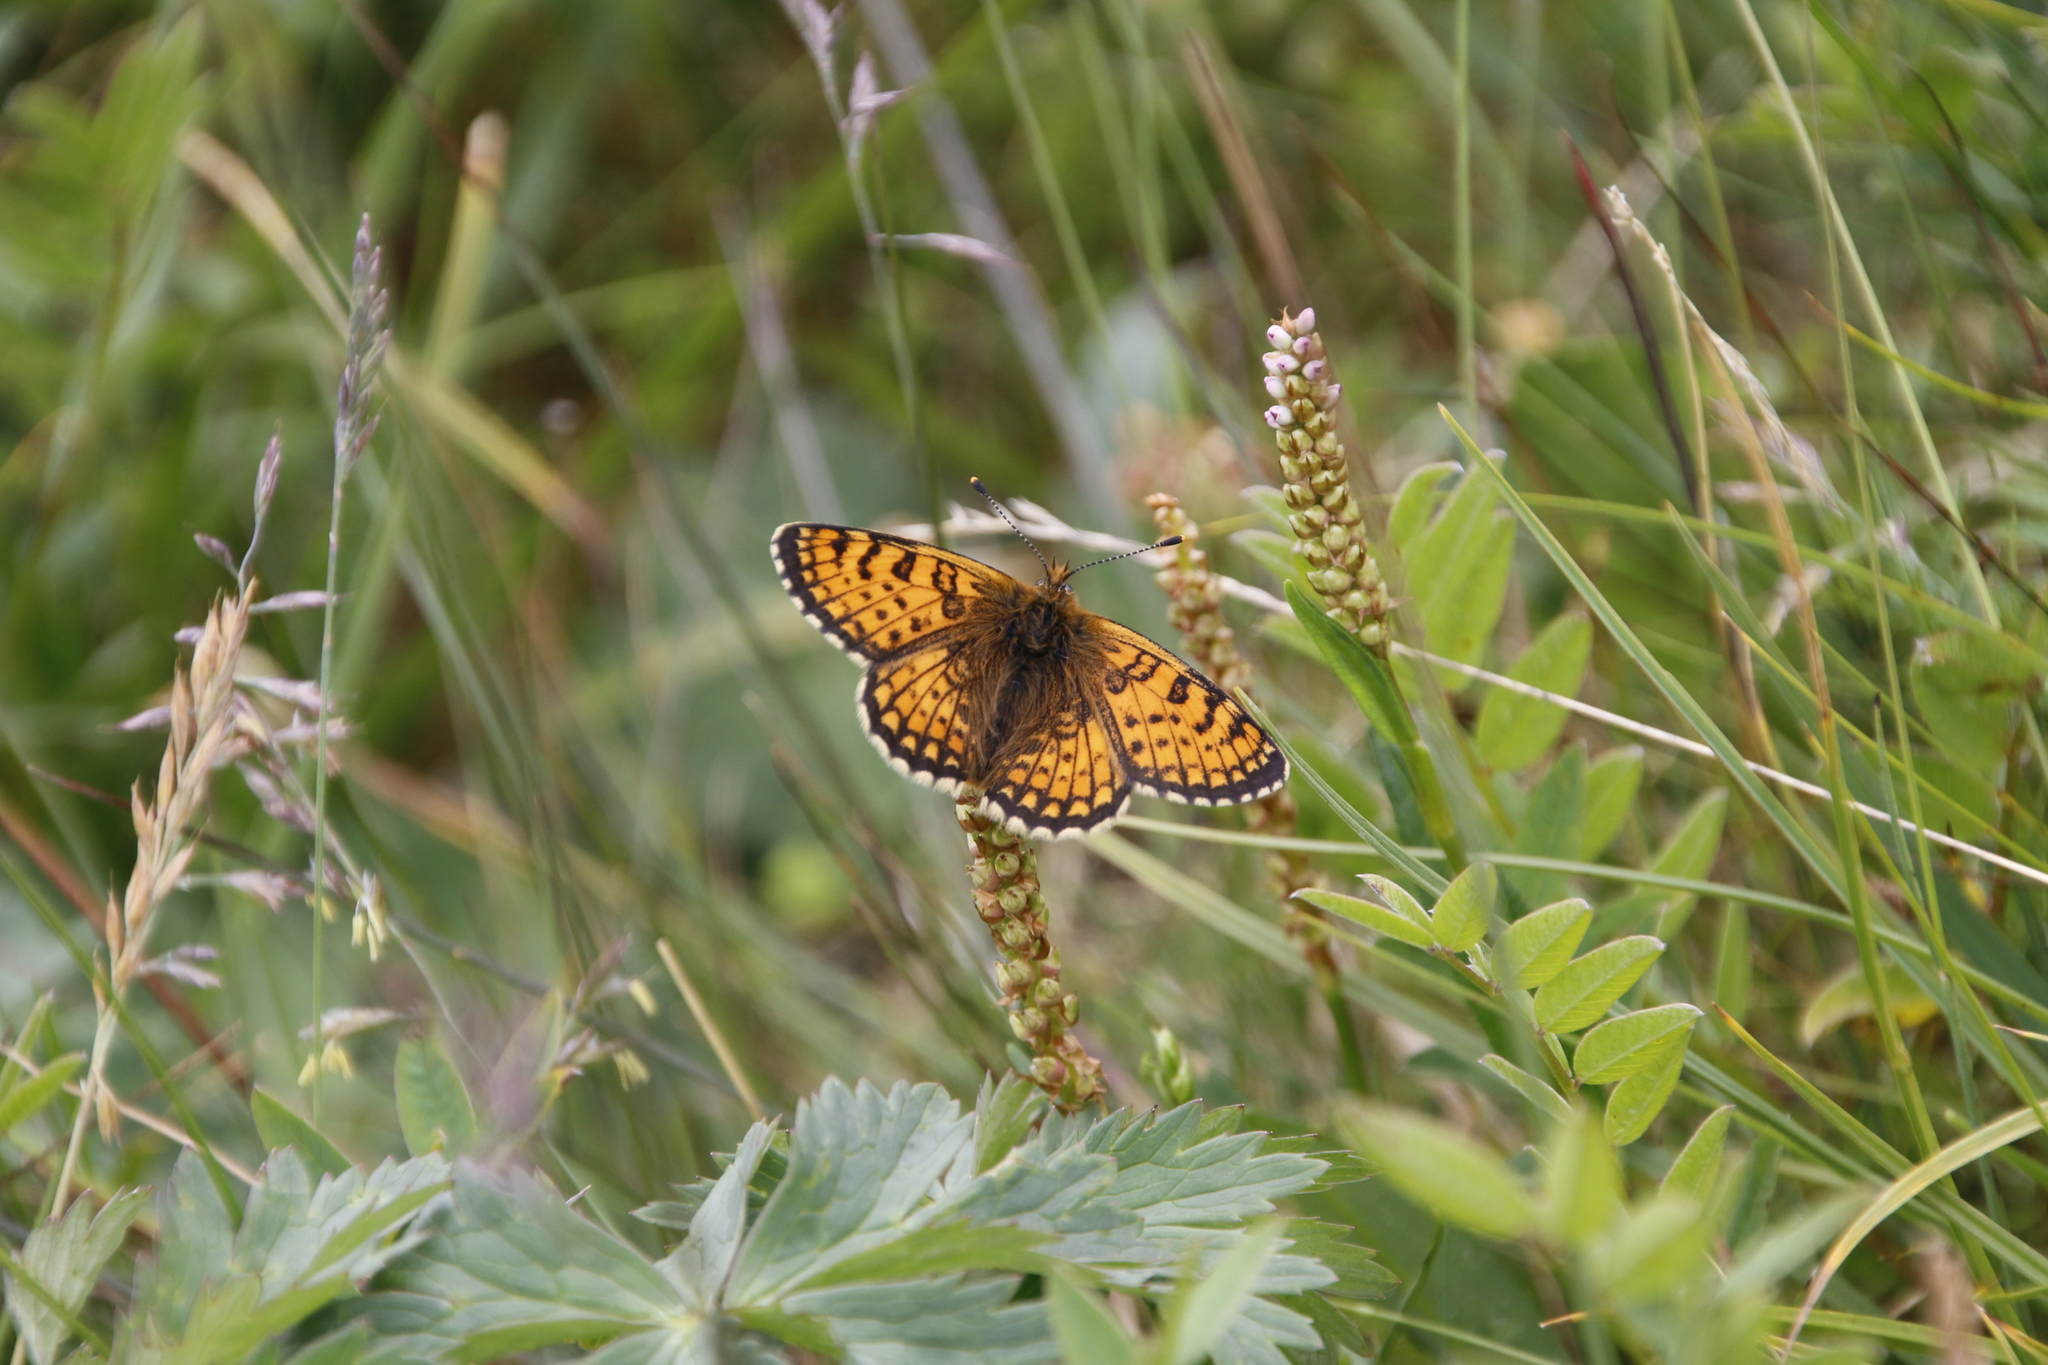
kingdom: Animalia
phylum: Arthropoda
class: Insecta
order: Lepidoptera
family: Nymphalidae
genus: Melitaea
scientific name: Melitaea arcesia
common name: Blackvein fritillary
